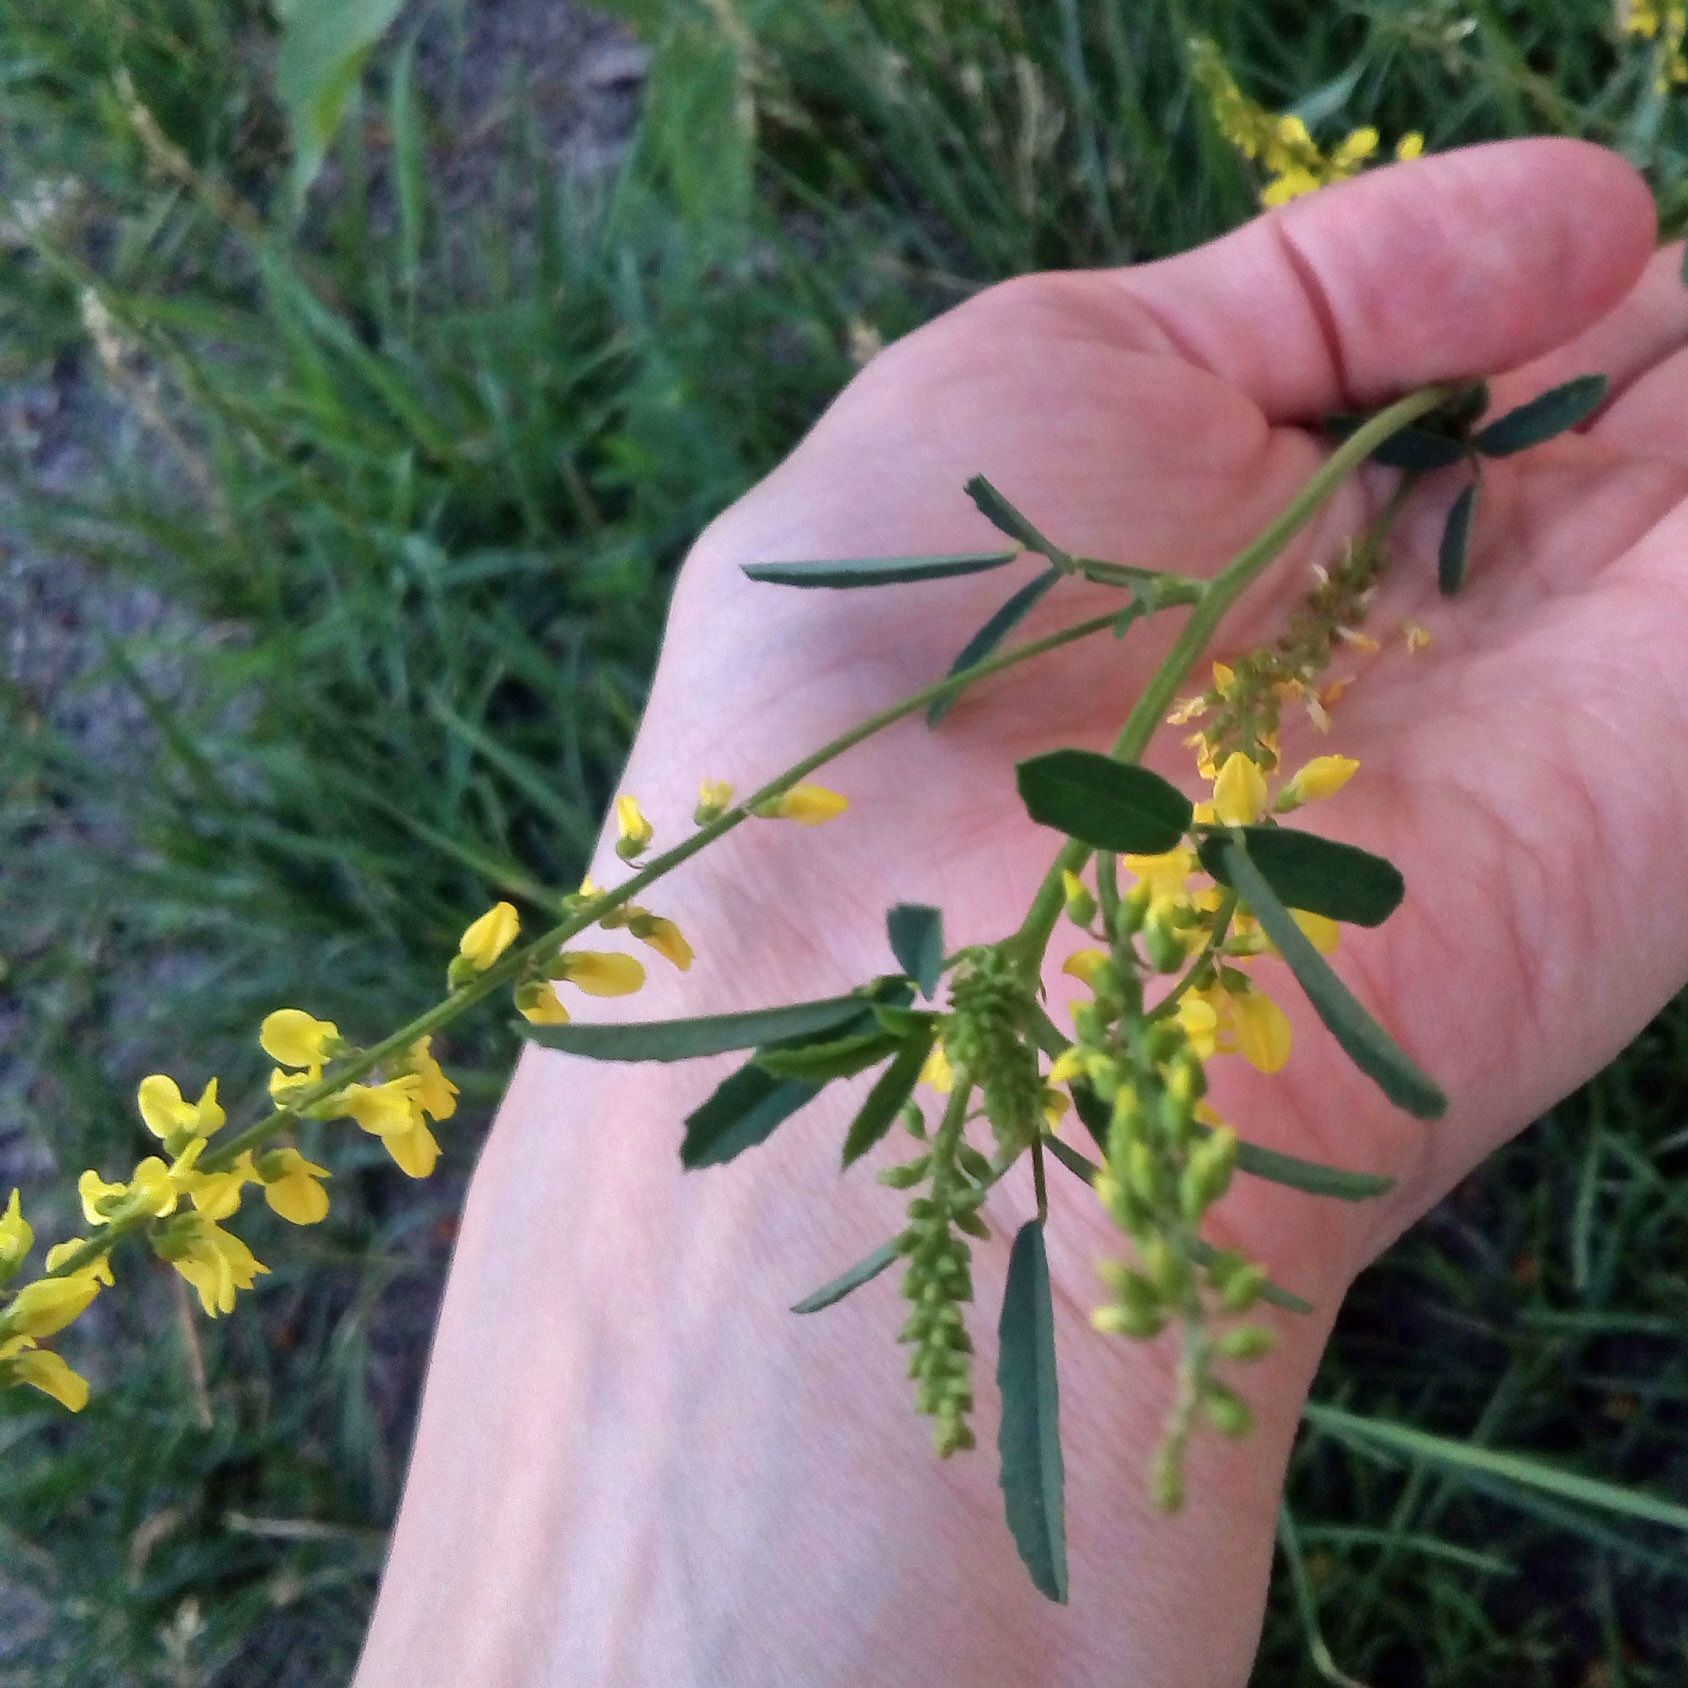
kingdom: Plantae
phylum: Tracheophyta
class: Magnoliopsida
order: Fabales
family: Fabaceae
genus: Melilotus
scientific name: Melilotus officinalis
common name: Sweetclover
